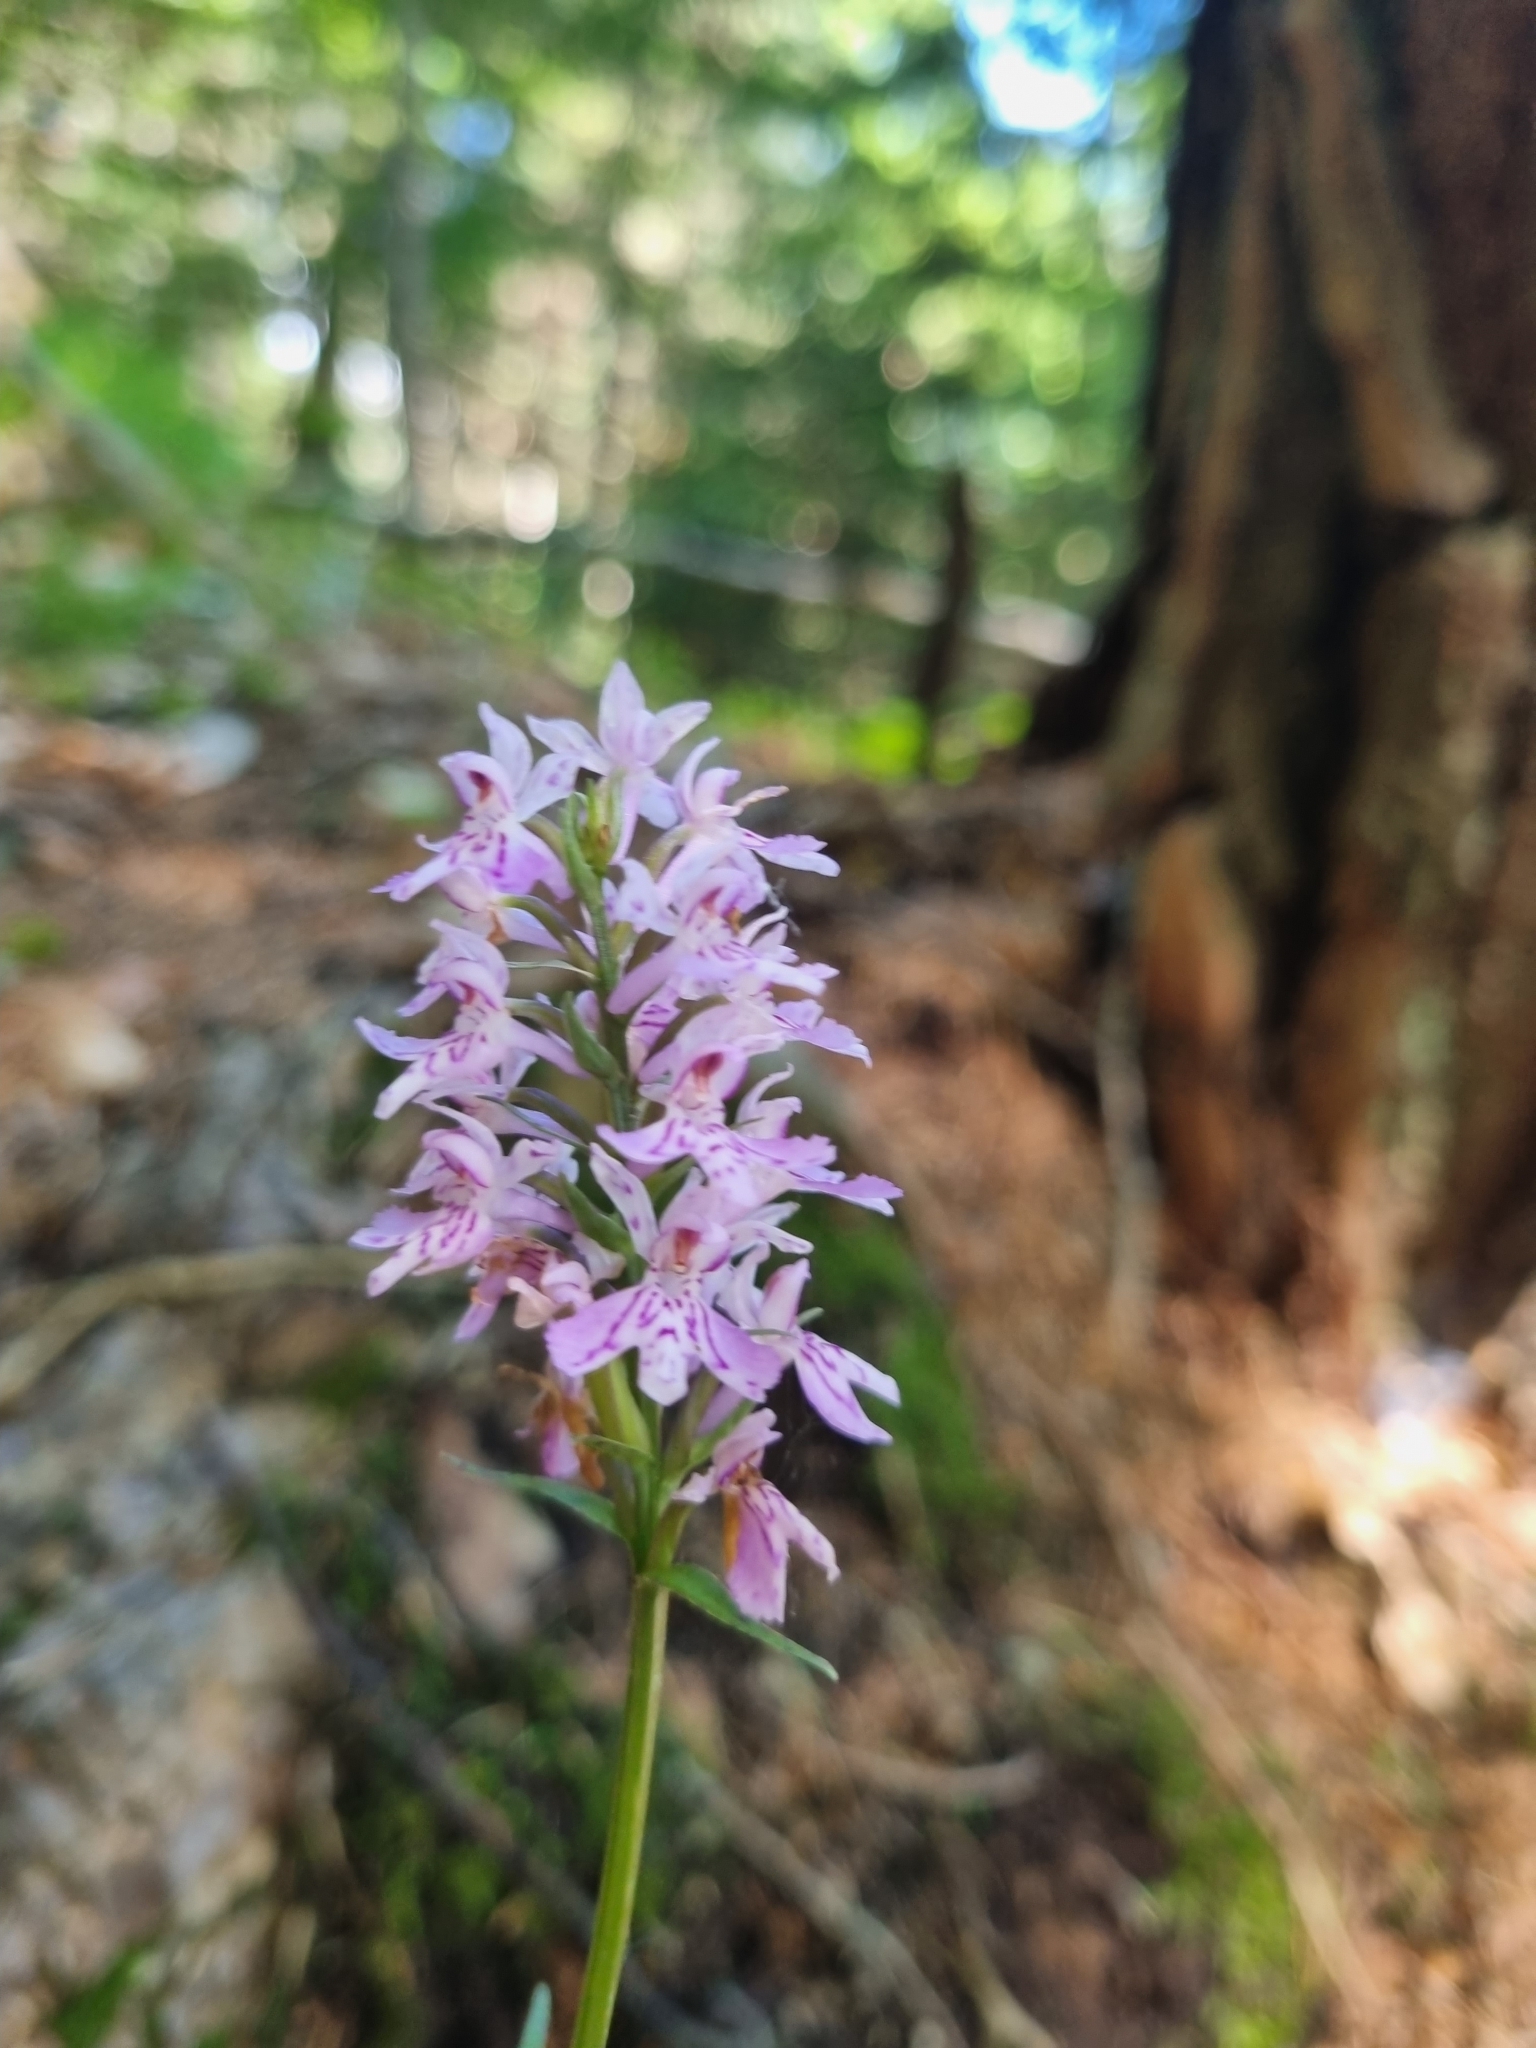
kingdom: Plantae
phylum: Tracheophyta
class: Liliopsida
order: Asparagales
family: Orchidaceae
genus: Dactylorhiza
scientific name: Dactylorhiza maculata
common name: Heath spotted-orchid
